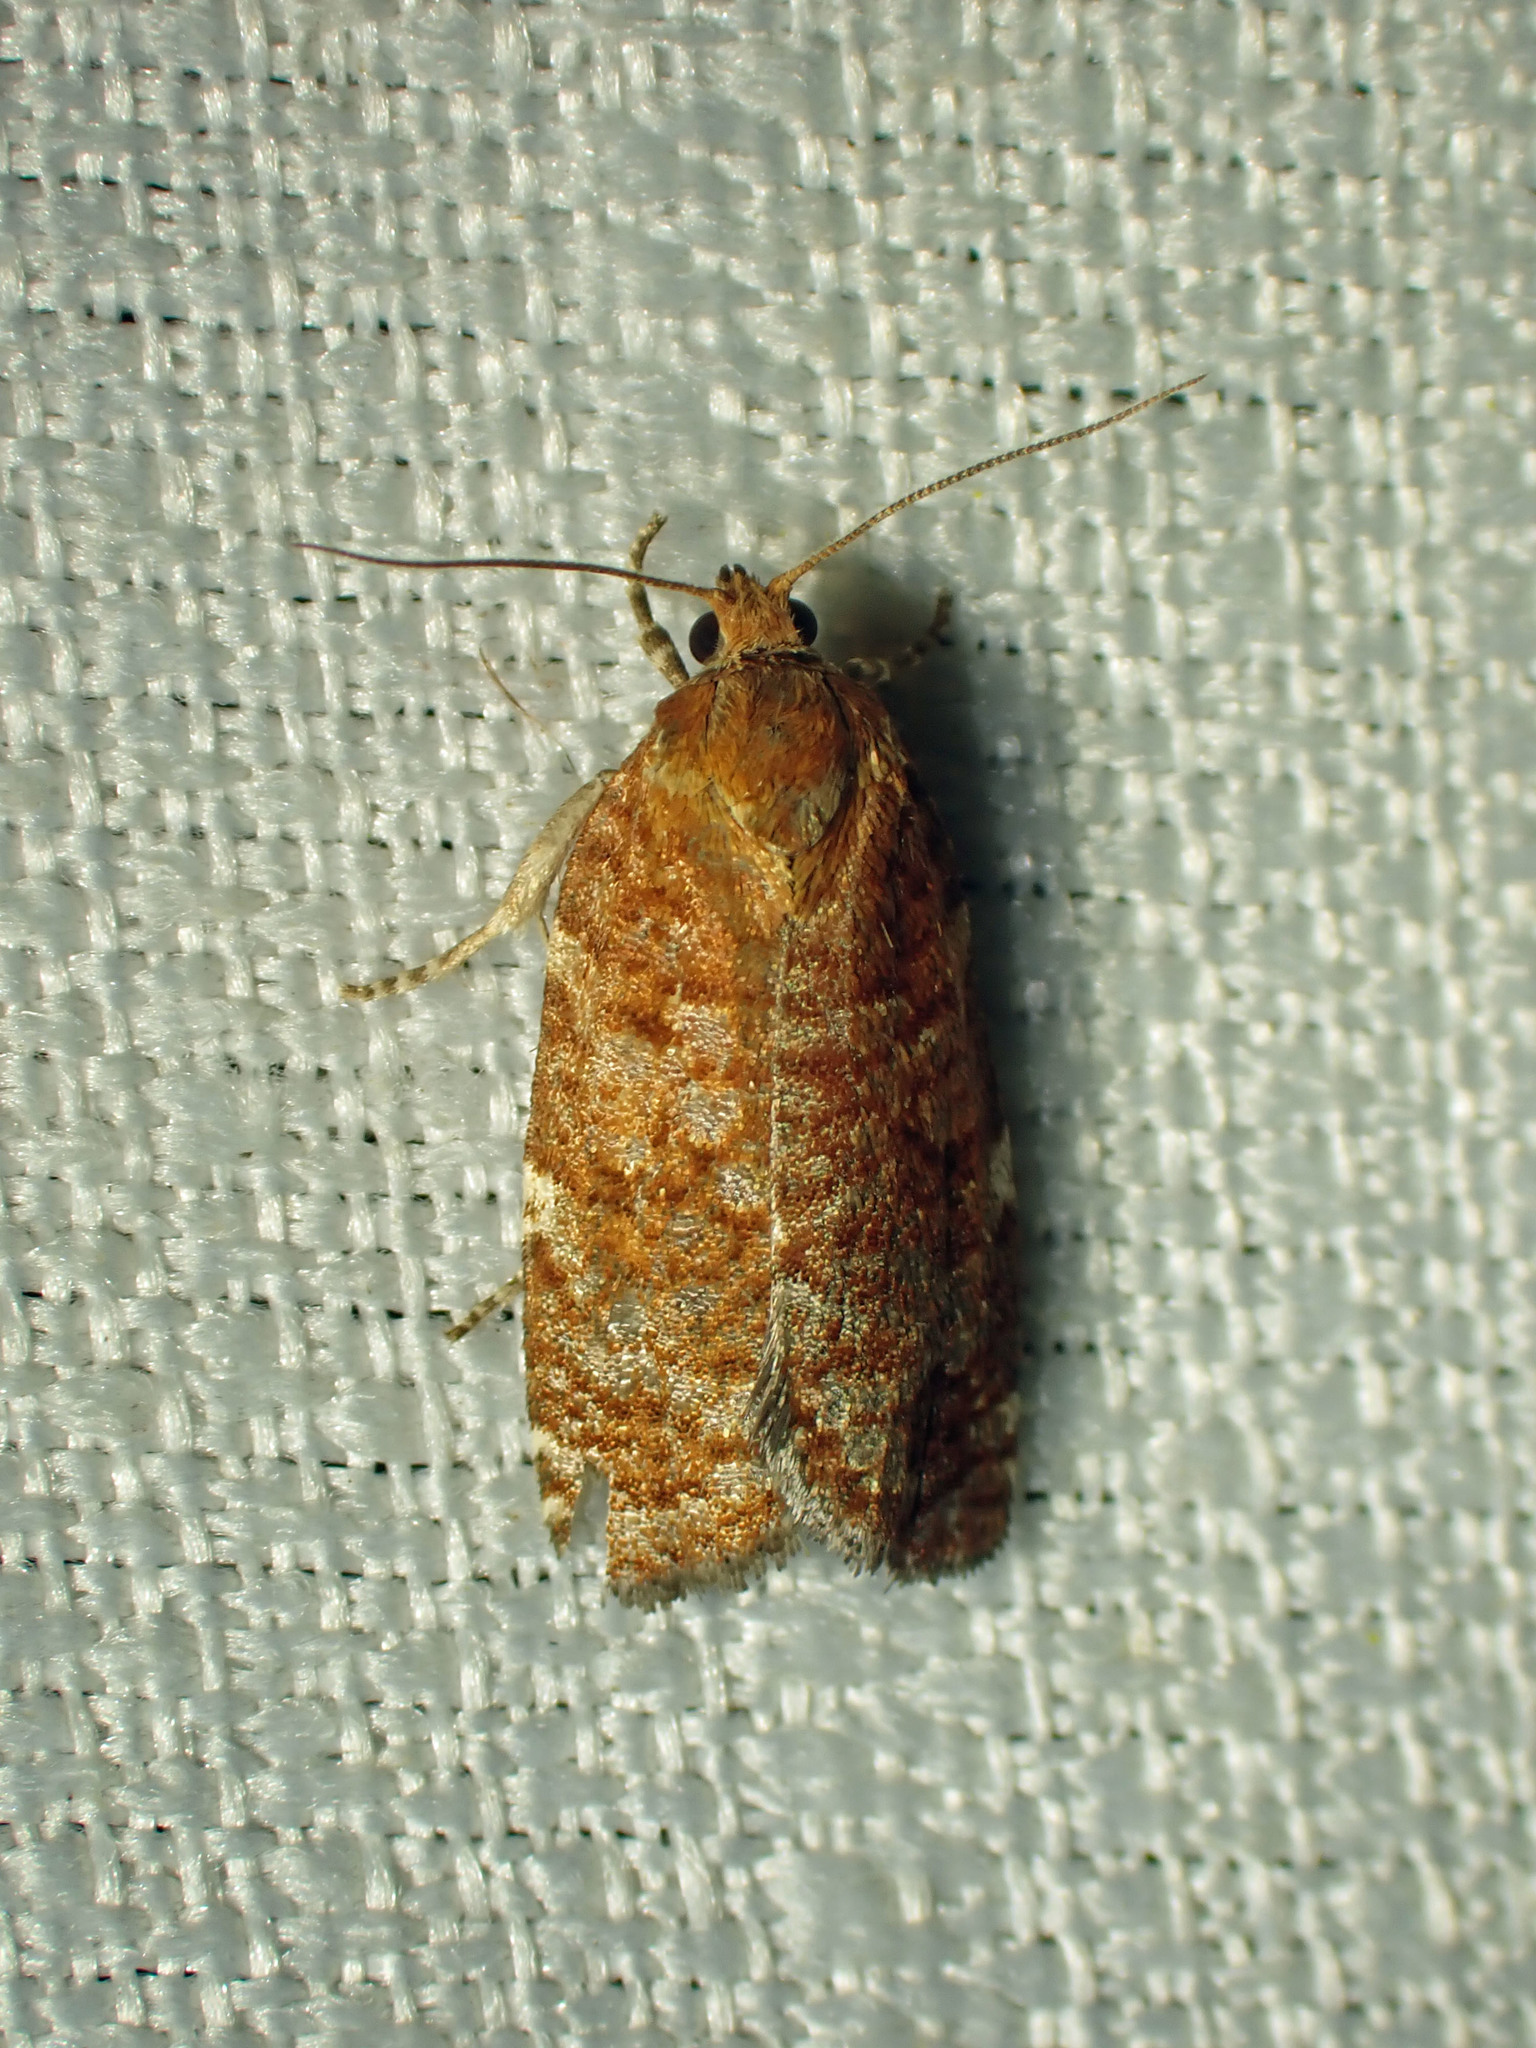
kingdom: Animalia
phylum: Arthropoda
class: Insecta
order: Lepidoptera
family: Tortricidae
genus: Choristoneura
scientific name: Choristoneura pinus
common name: Jack pine budworm
